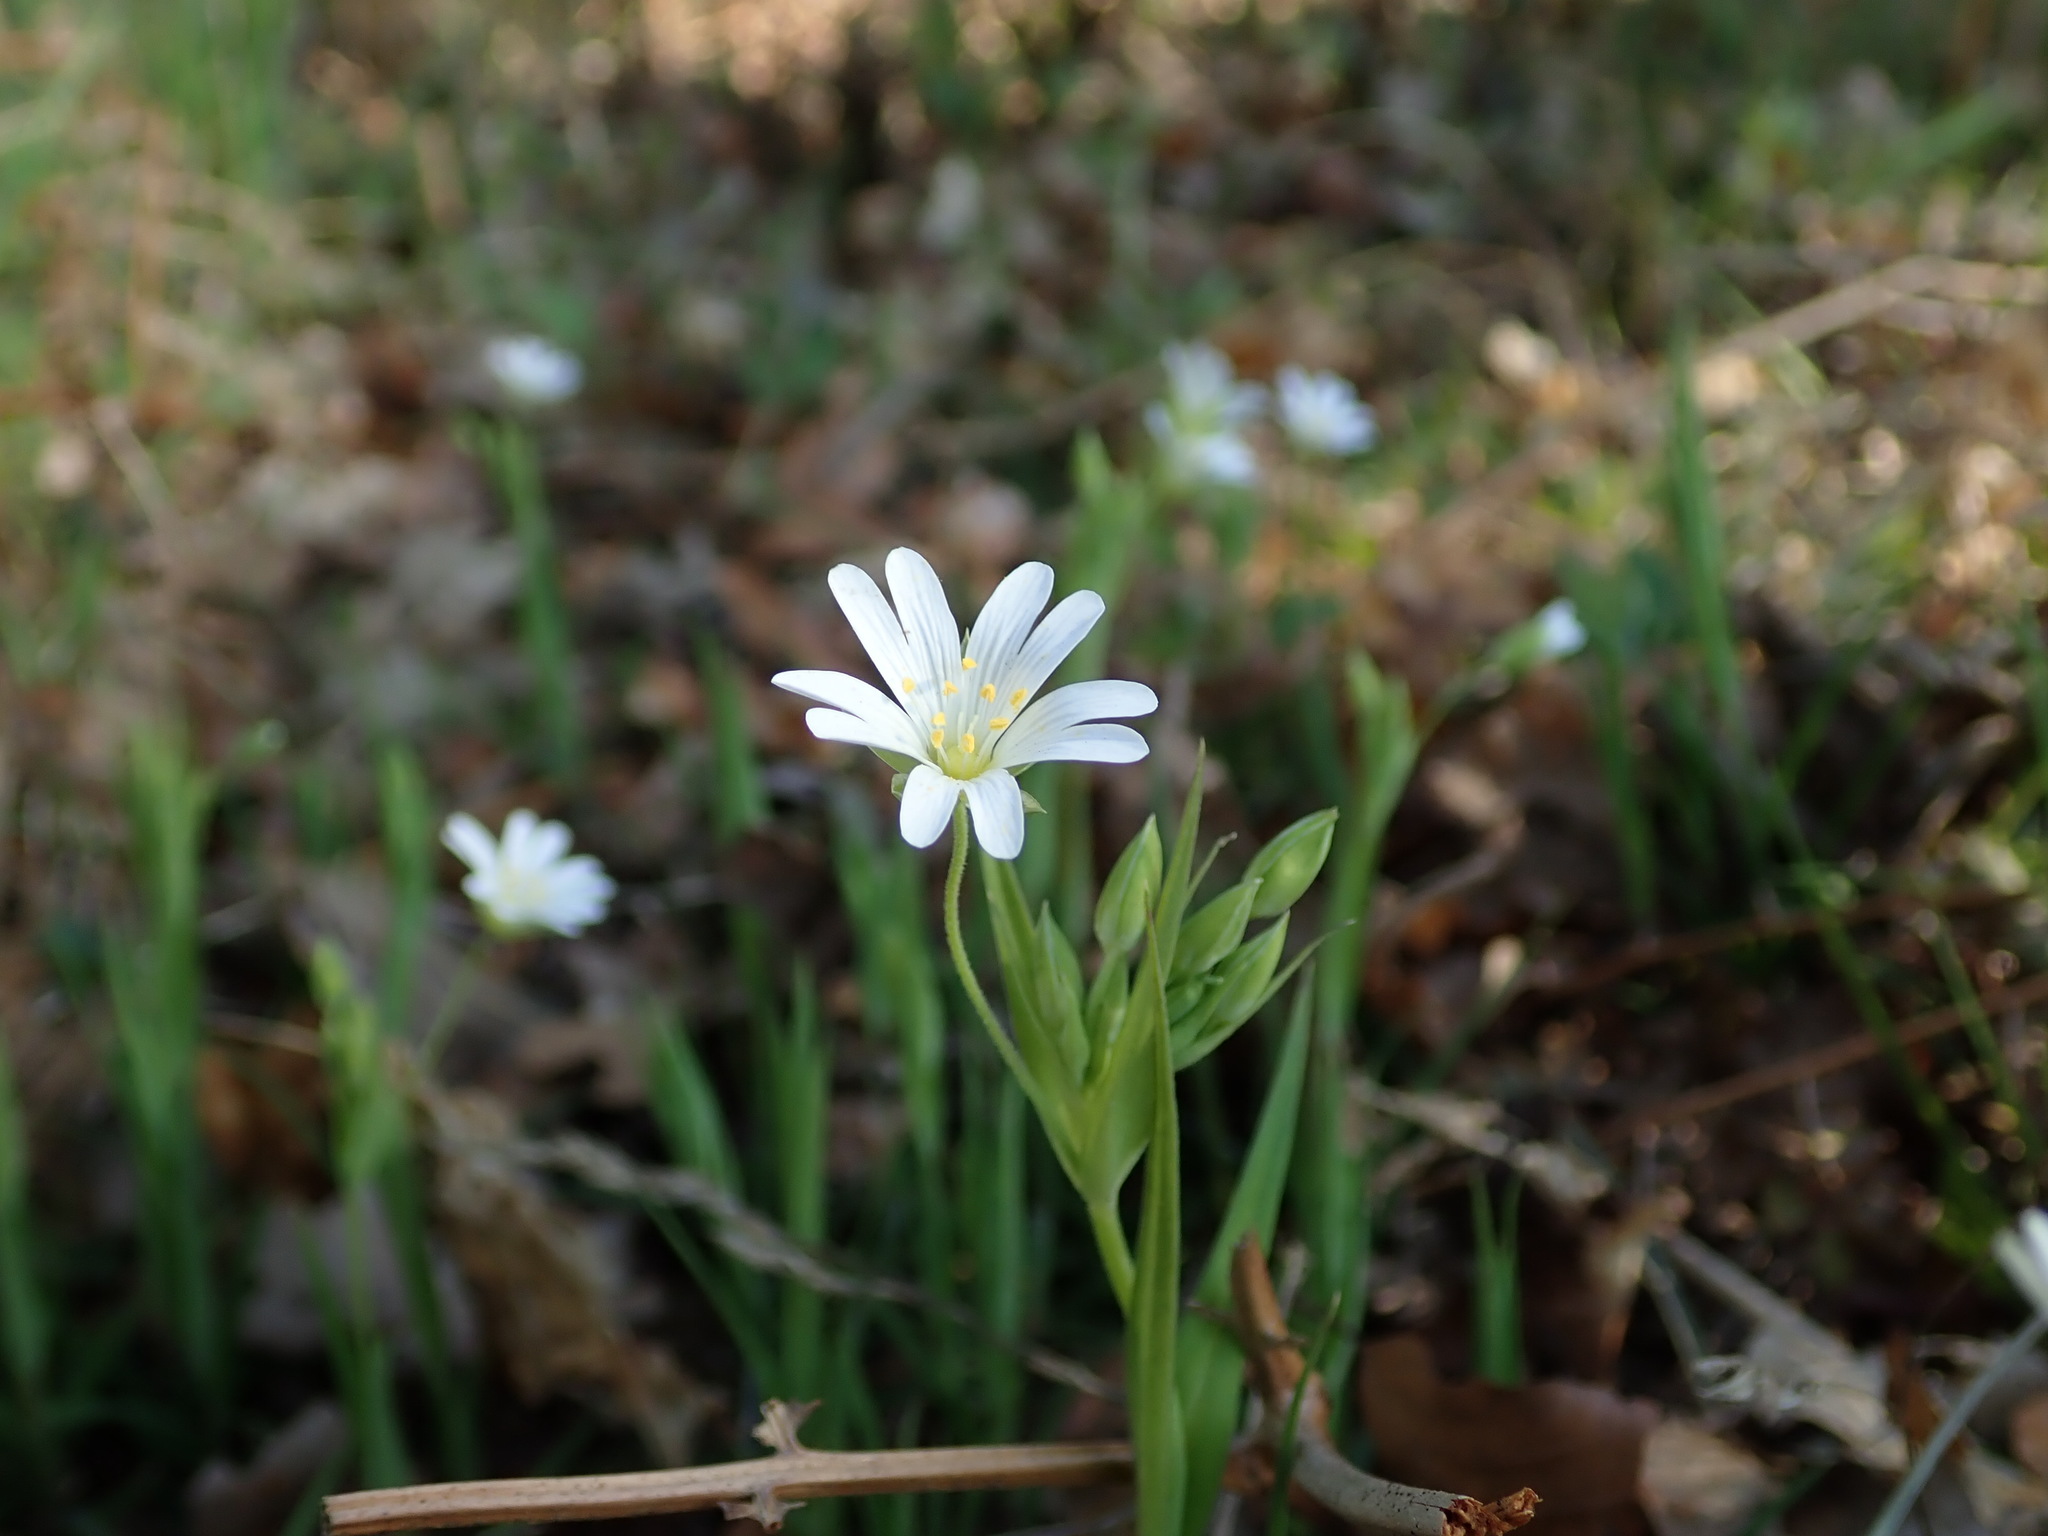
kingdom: Plantae
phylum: Tracheophyta
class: Magnoliopsida
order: Caryophyllales
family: Caryophyllaceae
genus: Rabelera
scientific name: Rabelera holostea
